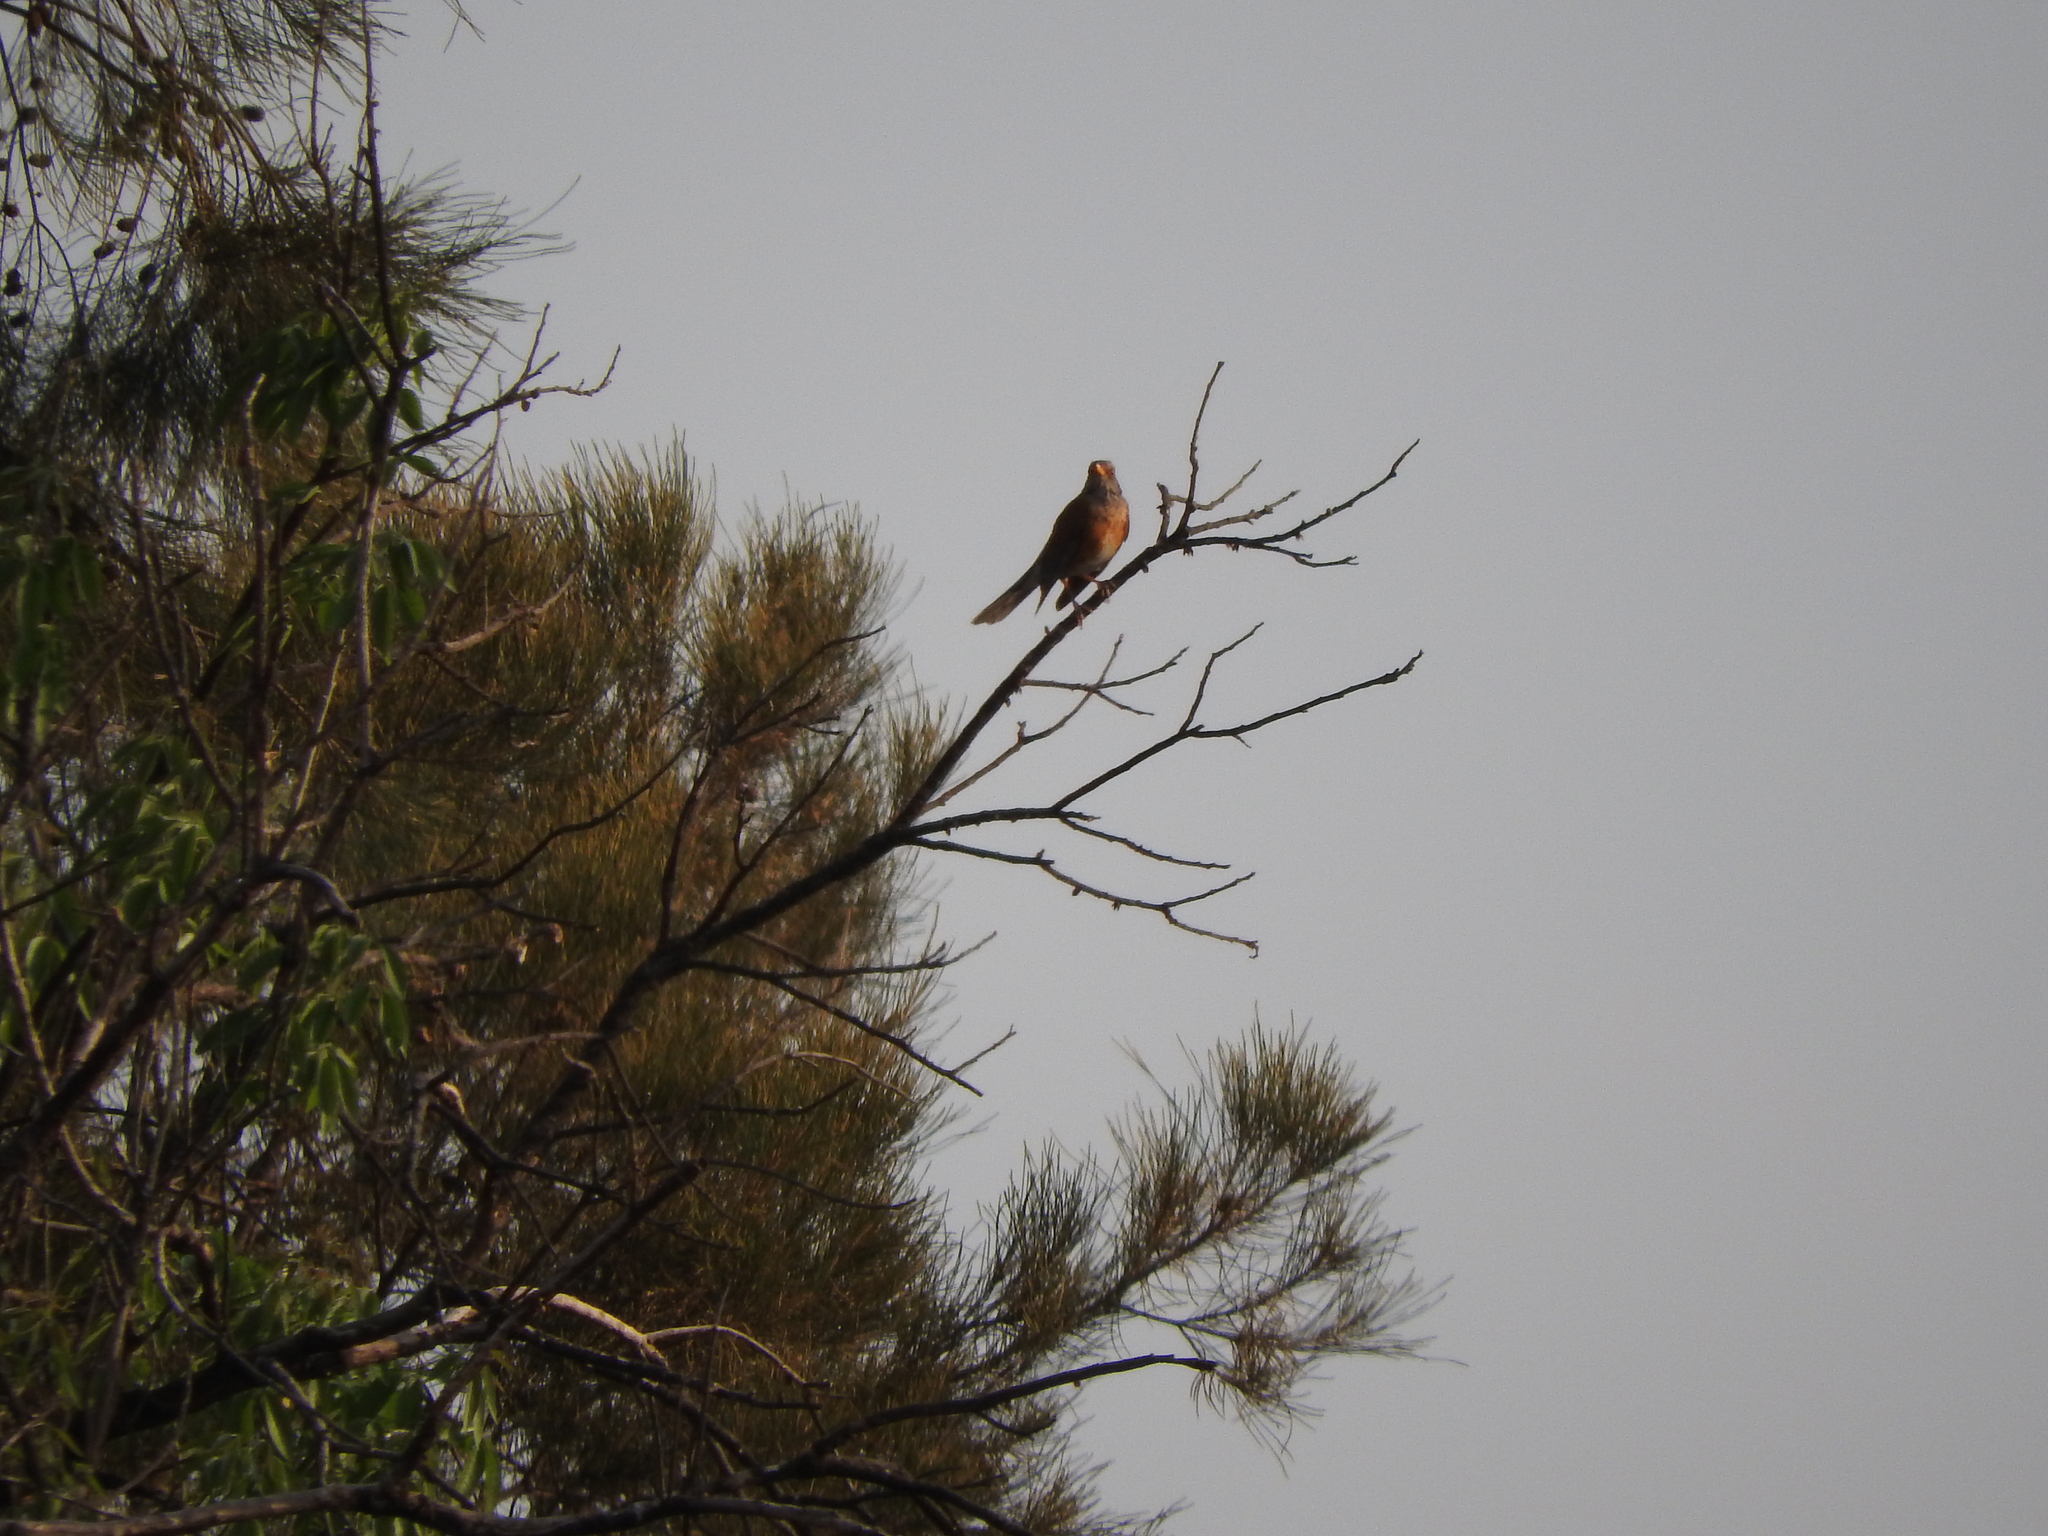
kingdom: Animalia
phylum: Chordata
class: Aves
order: Passeriformes
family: Turdidae
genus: Turdus
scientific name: Turdus rufopalliatus
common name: Rufous-backed robin
